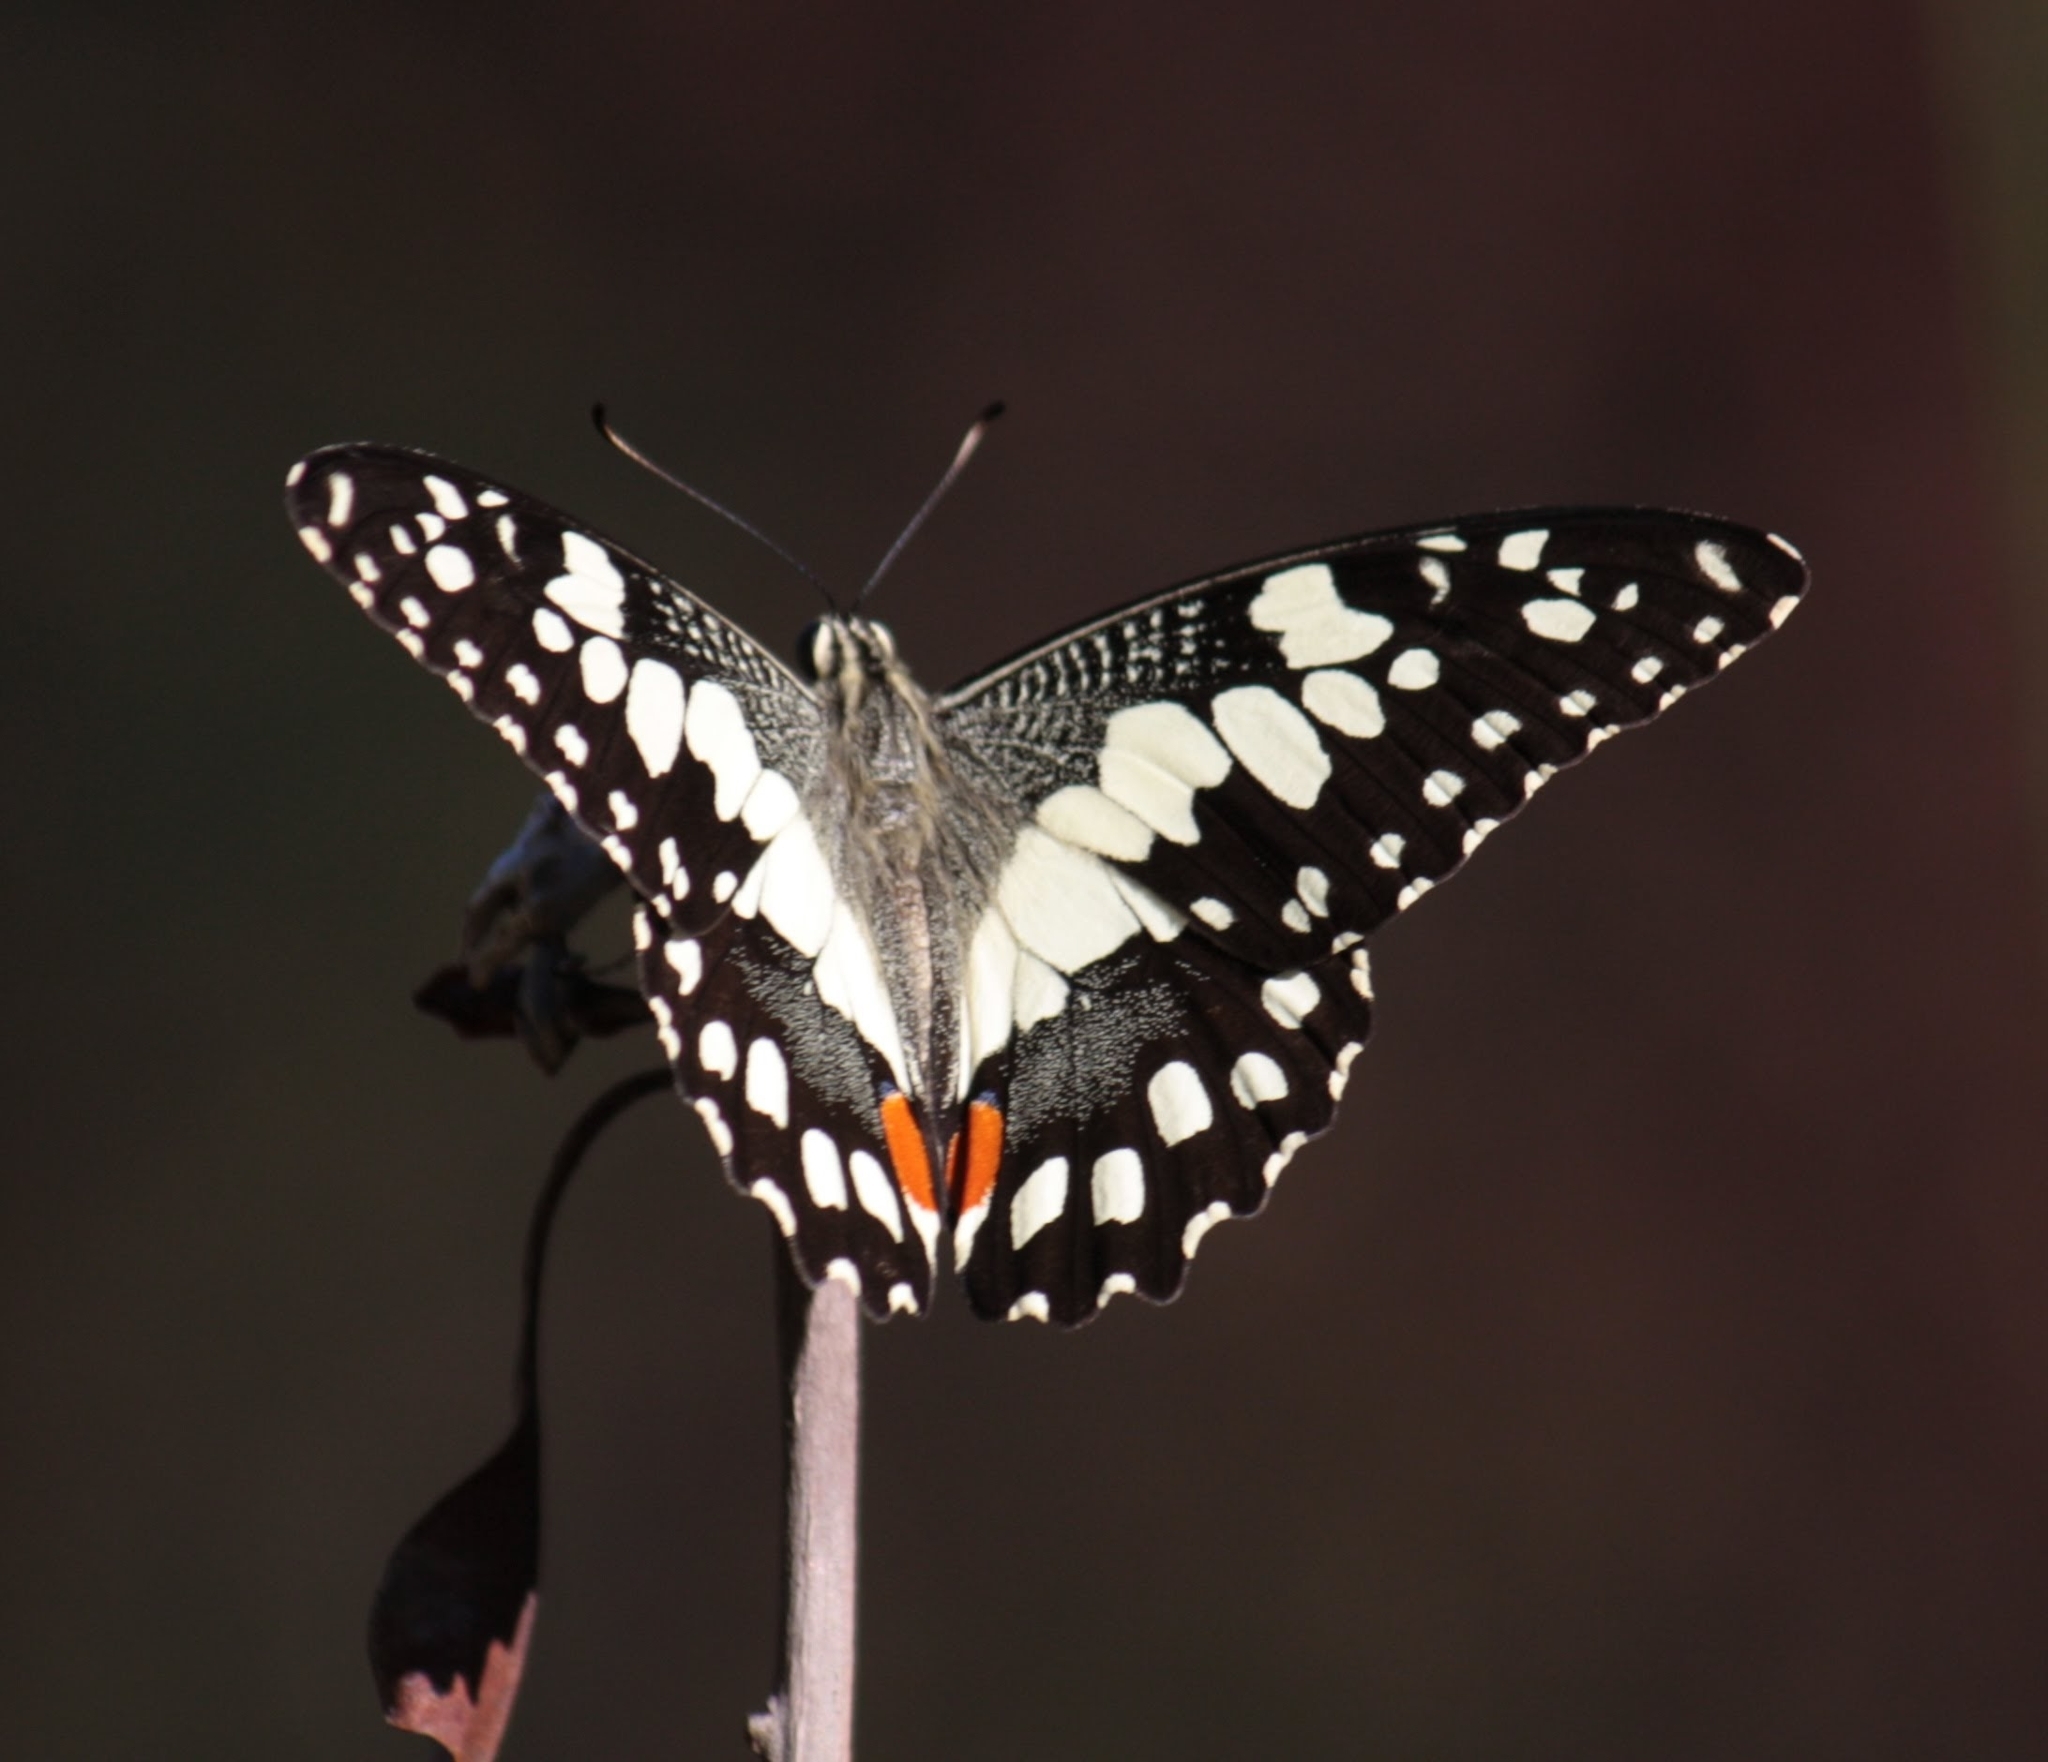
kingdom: Animalia
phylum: Arthropoda
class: Insecta
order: Lepidoptera
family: Papilionidae
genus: Papilio
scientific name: Papilio demoleus
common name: Lime butterfly
